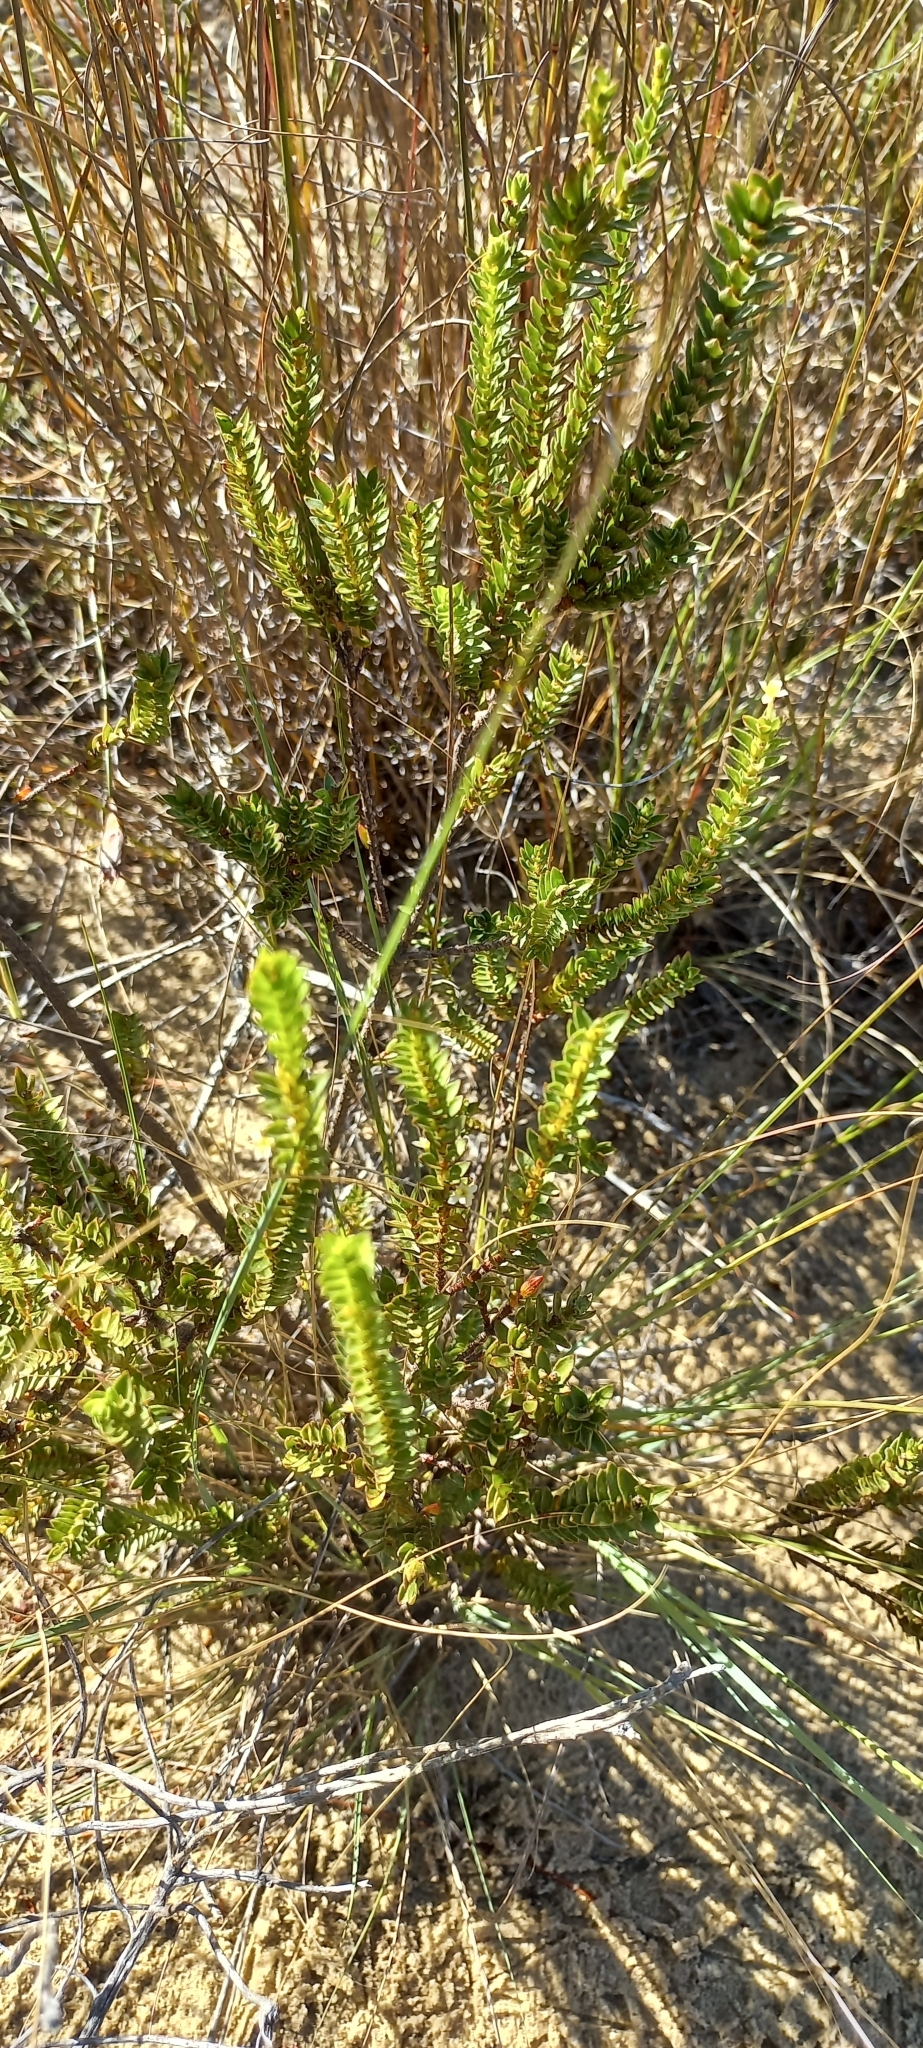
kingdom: Plantae
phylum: Tracheophyta
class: Magnoliopsida
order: Malvales
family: Thymelaeaceae
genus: Struthiola
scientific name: Struthiola striata
